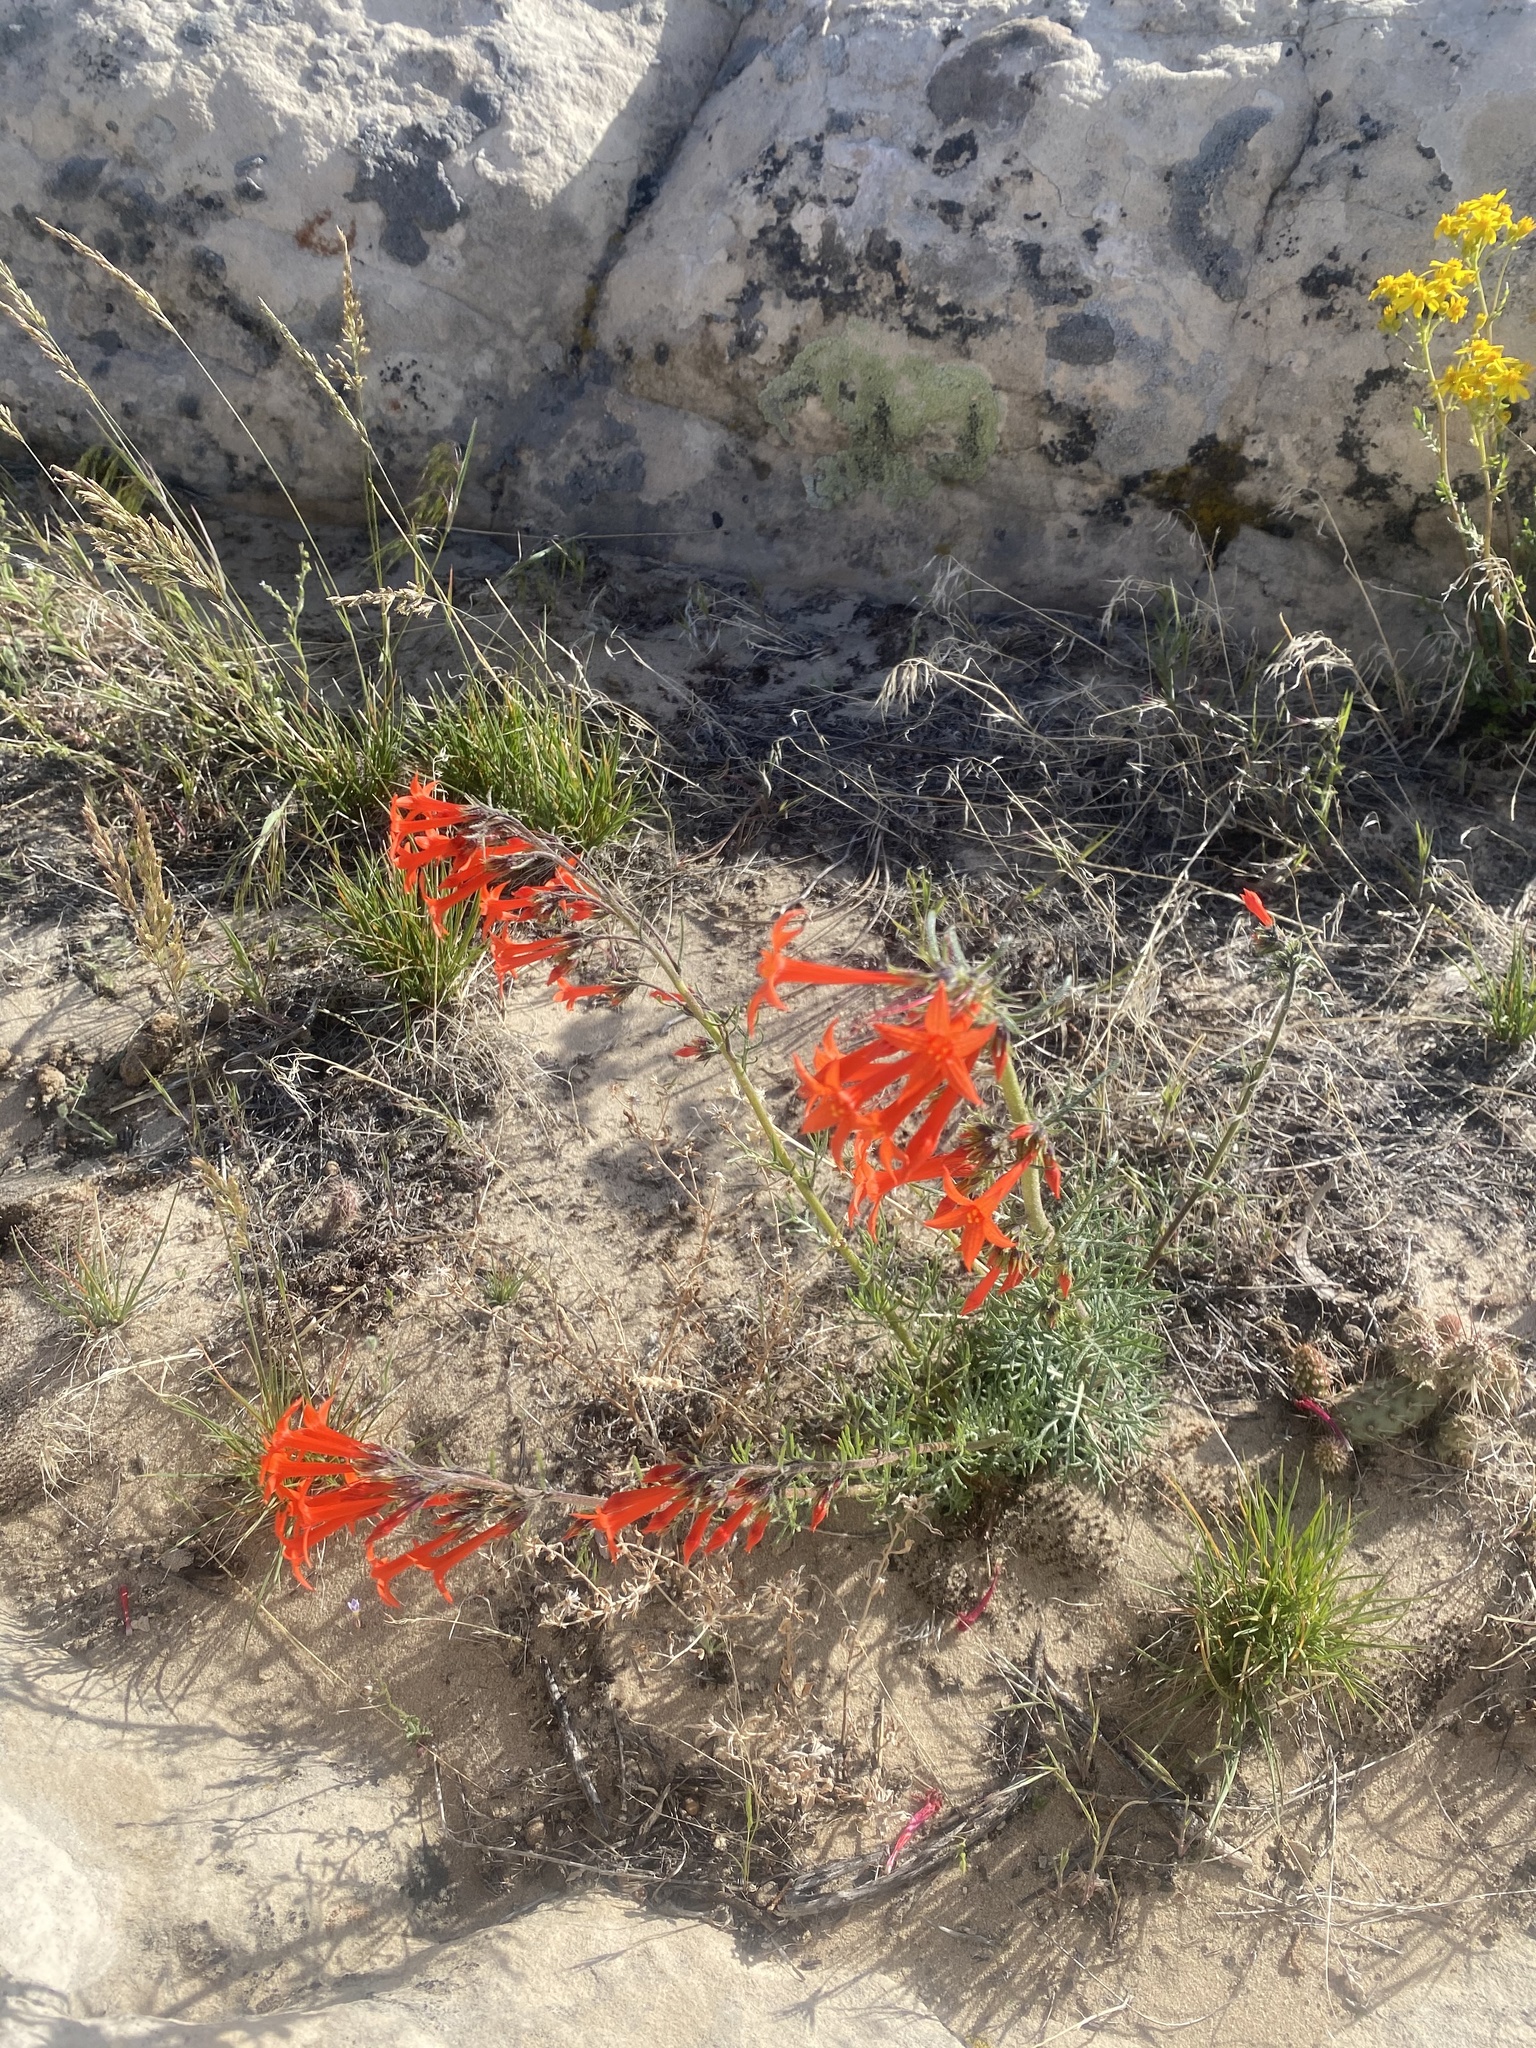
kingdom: Plantae
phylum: Tracheophyta
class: Magnoliopsida
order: Ericales
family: Polemoniaceae
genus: Ipomopsis
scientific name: Ipomopsis aggregata
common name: Scarlet gilia
